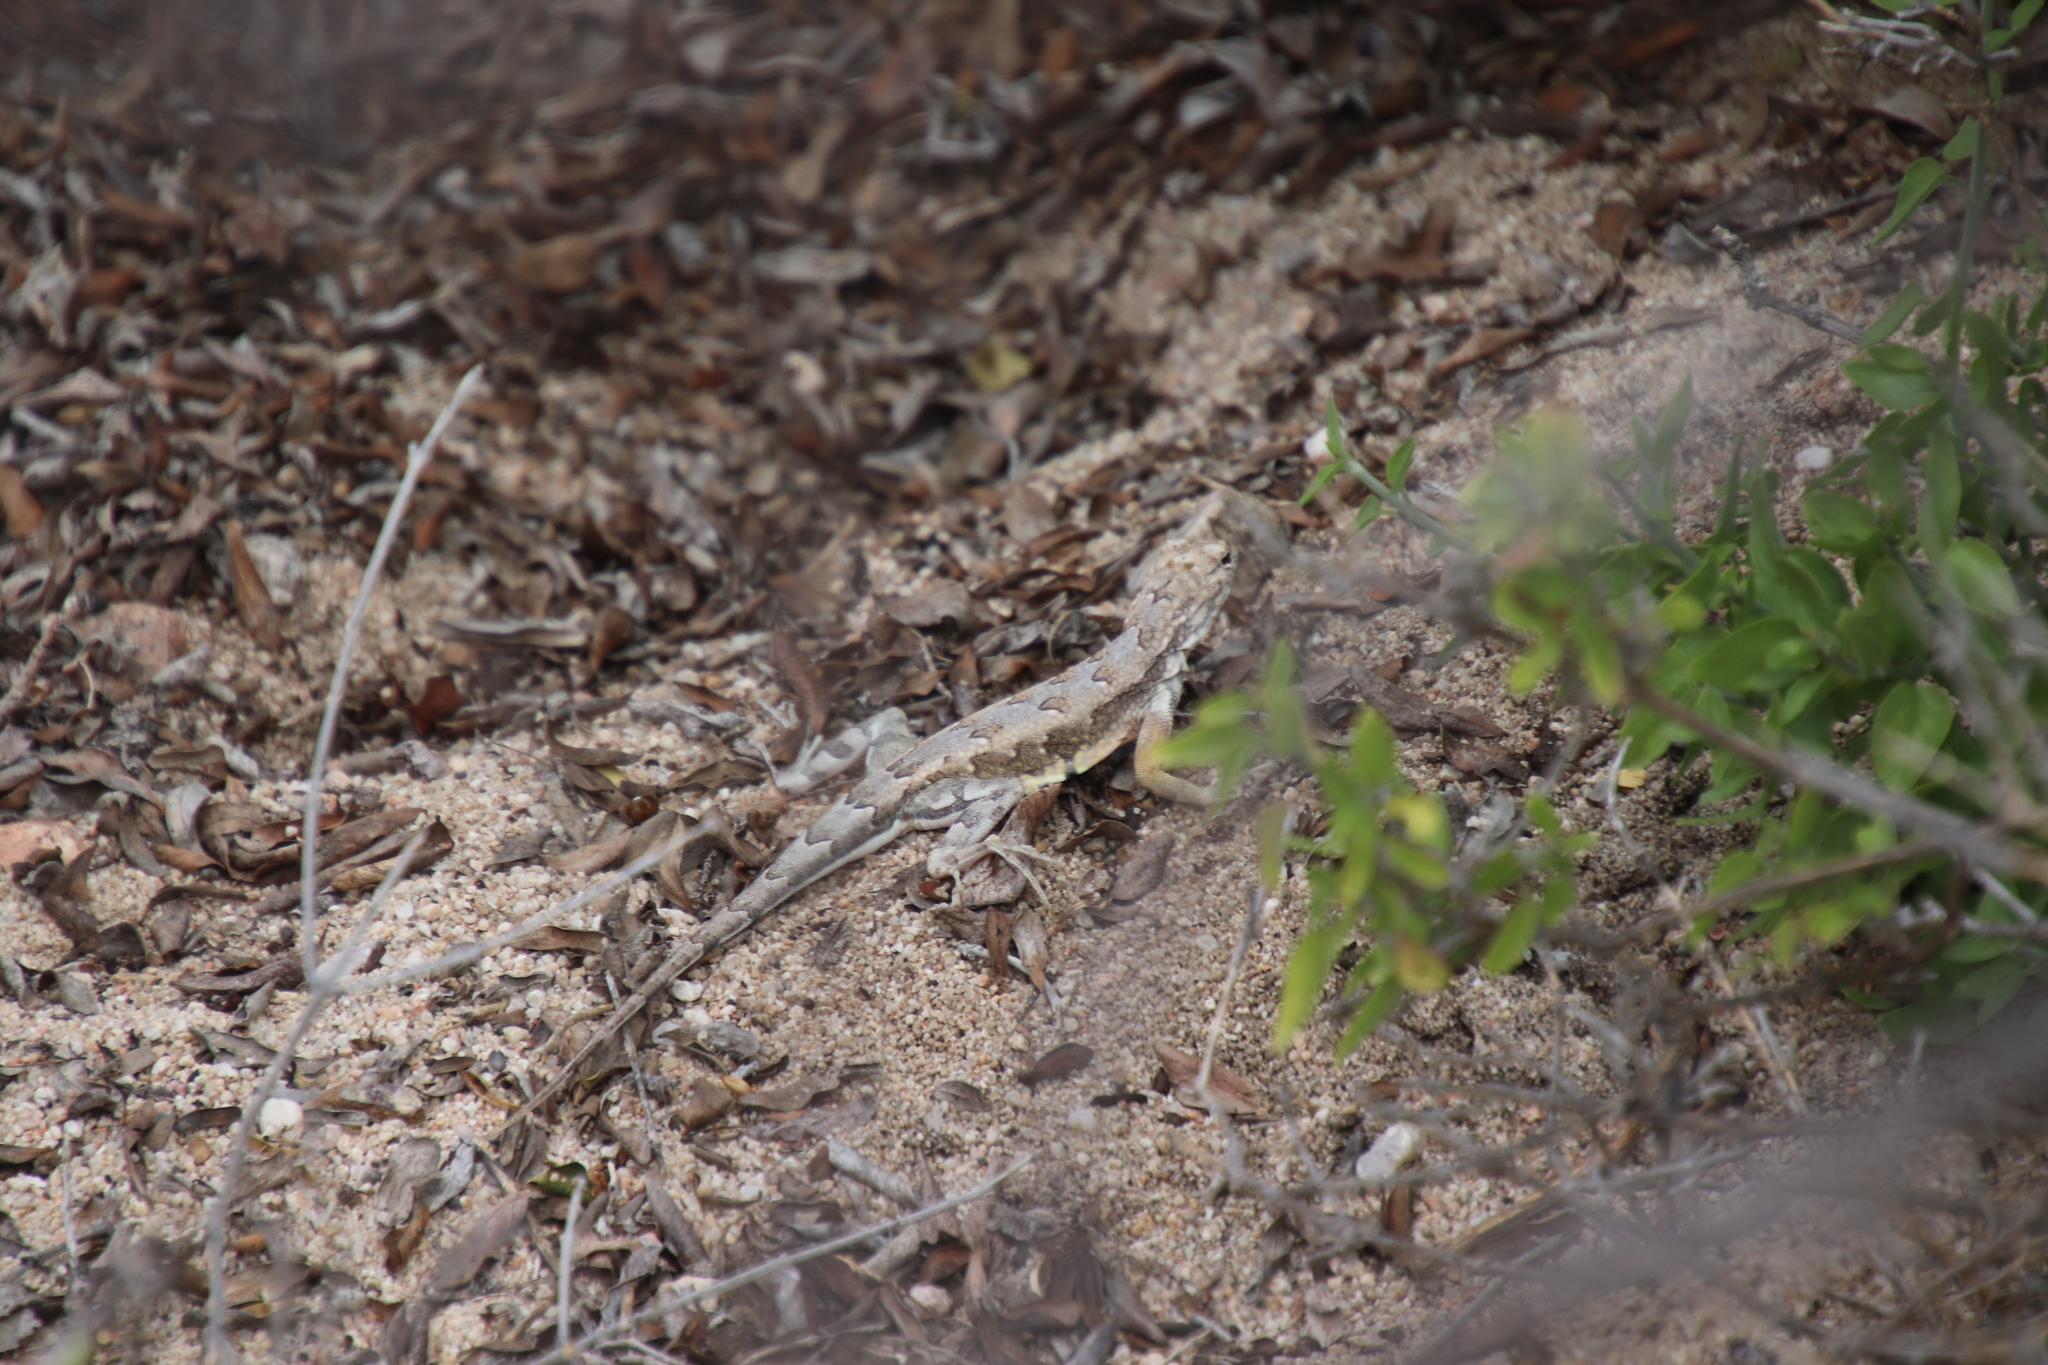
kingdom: Animalia
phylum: Chordata
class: Squamata
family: Phrynosomatidae
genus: Callisaurus
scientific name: Callisaurus draconoides
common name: Zebra-tailed lizard
